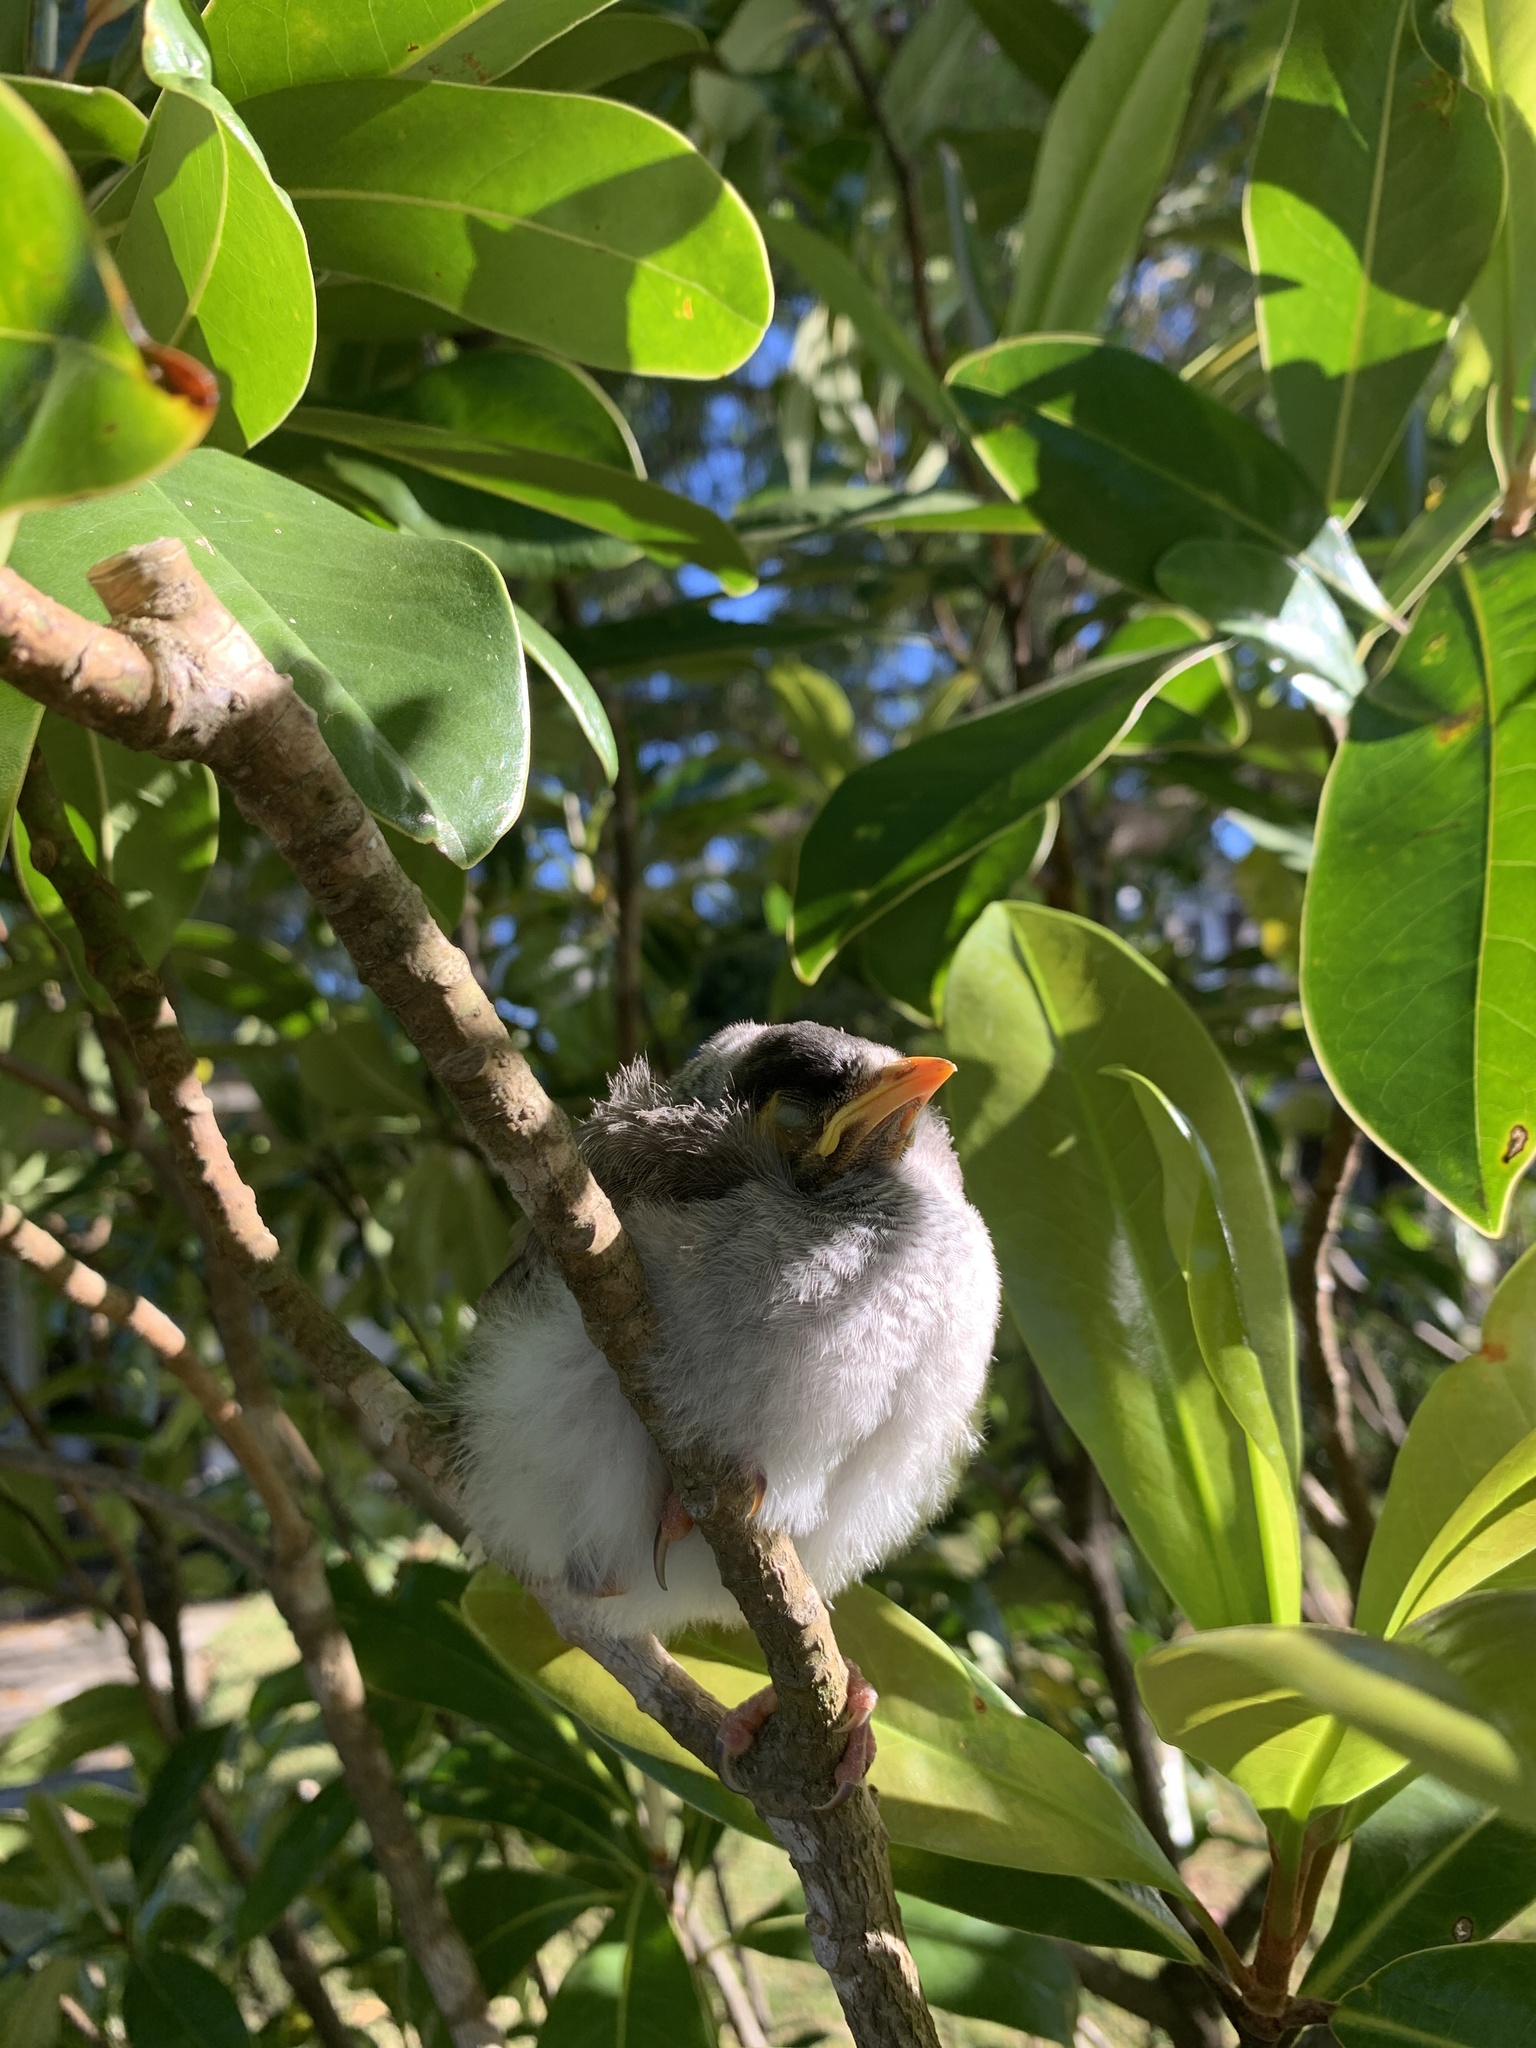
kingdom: Animalia
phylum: Chordata
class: Aves
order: Passeriformes
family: Meliphagidae
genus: Manorina
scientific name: Manorina melanocephala
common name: Noisy miner
